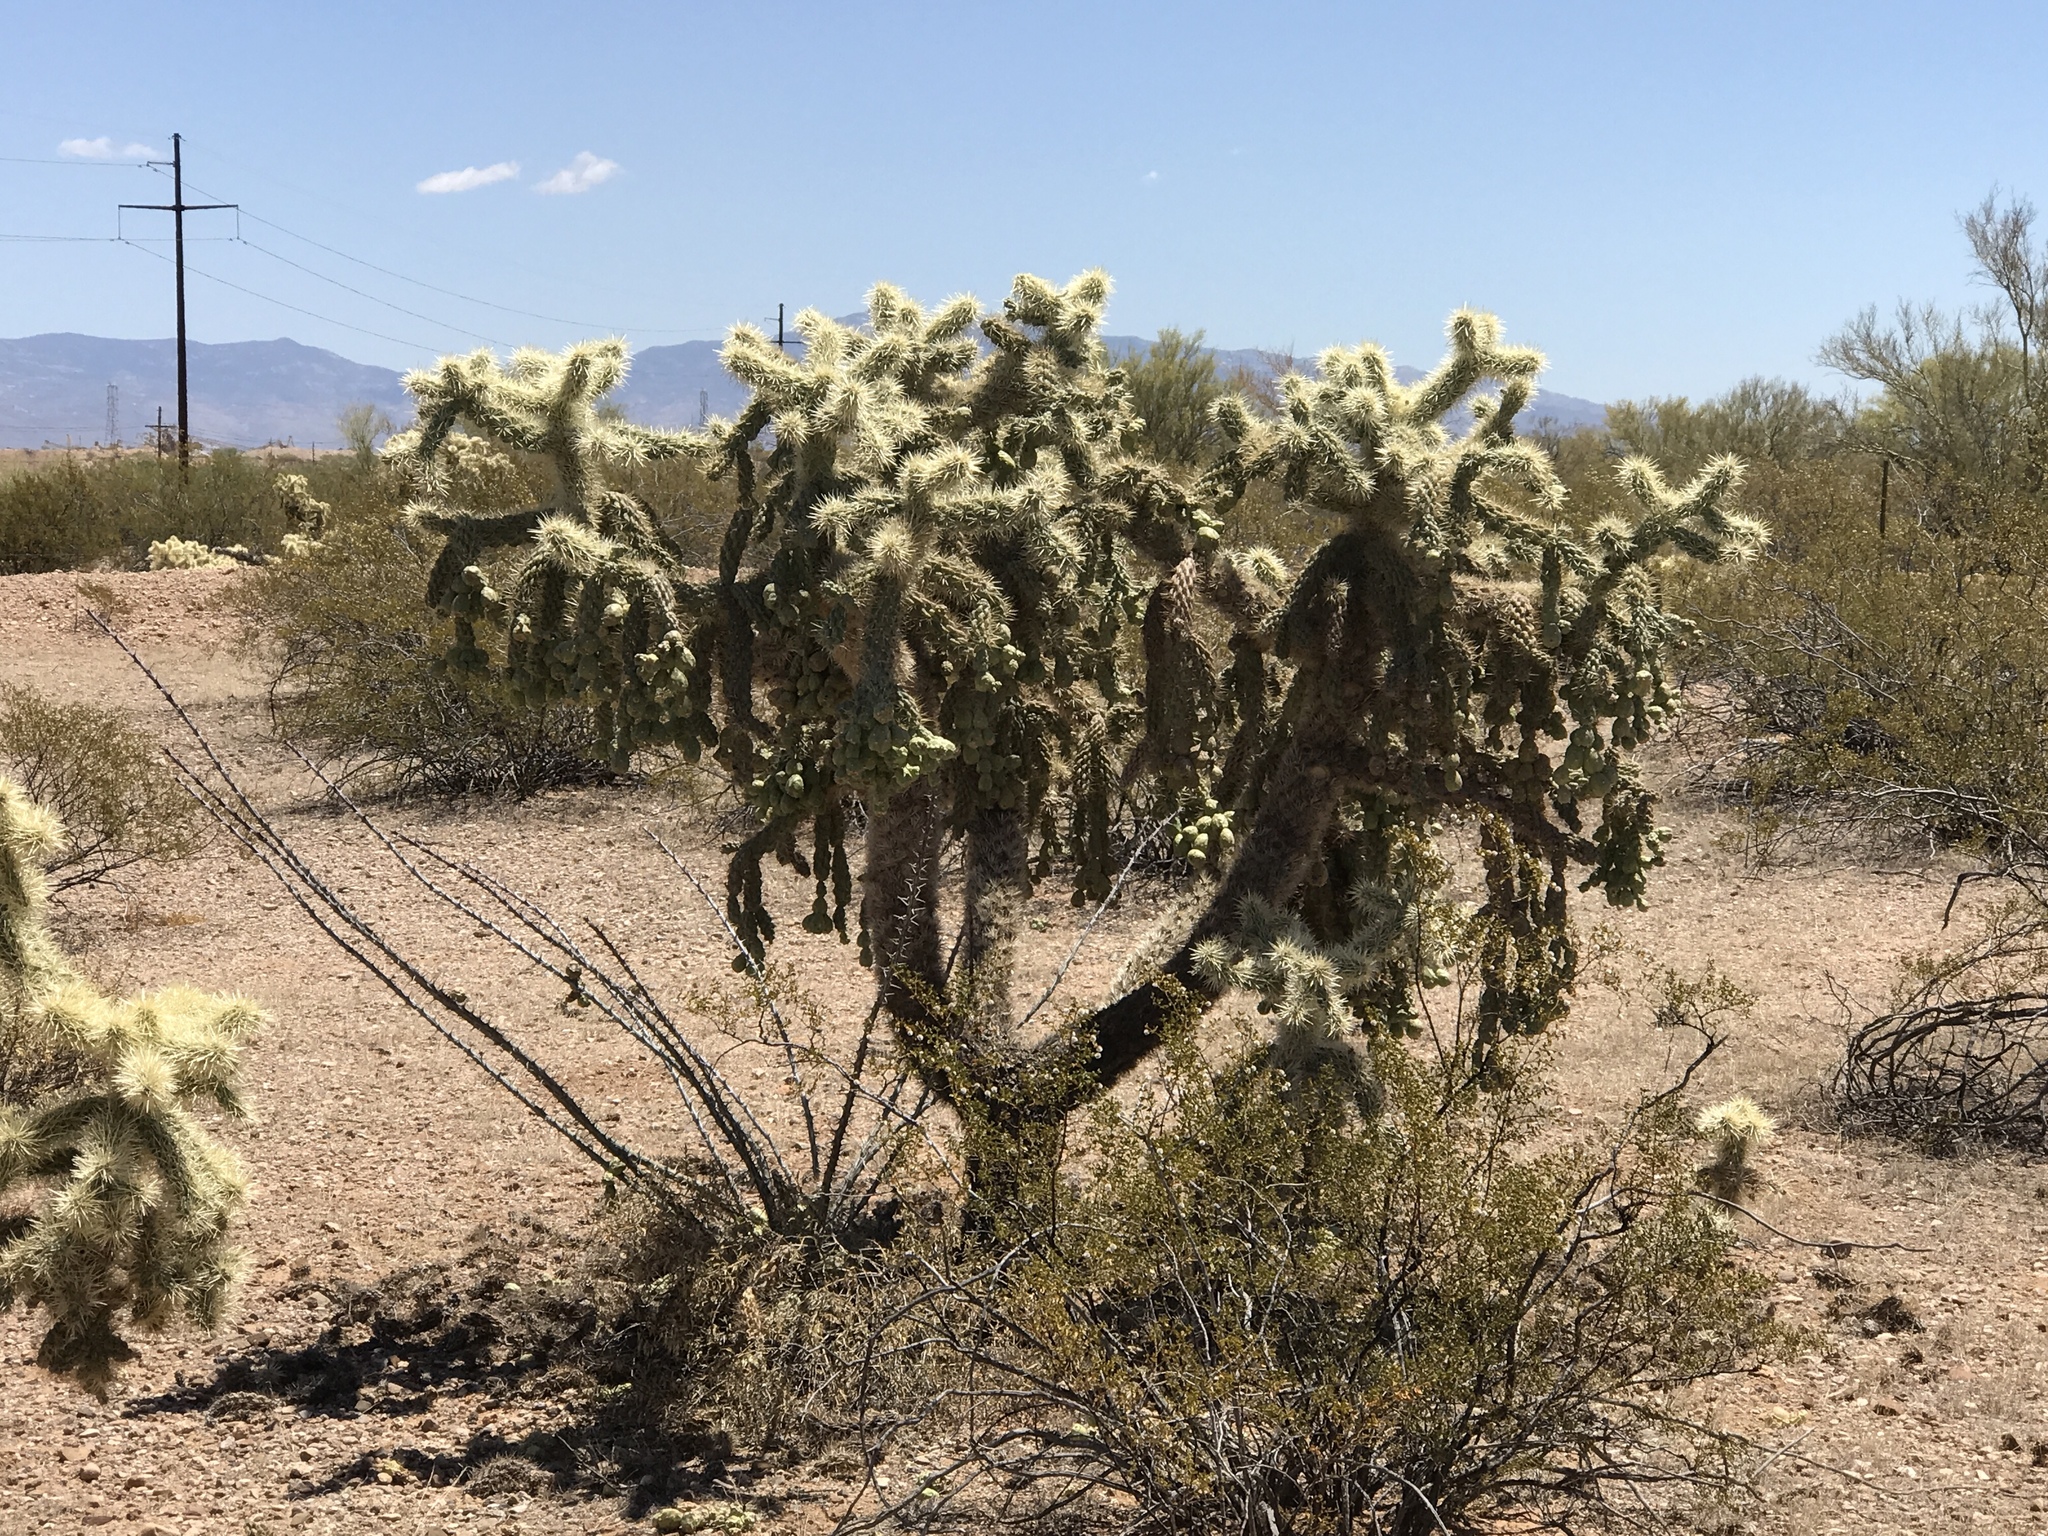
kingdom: Plantae
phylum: Tracheophyta
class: Magnoliopsida
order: Caryophyllales
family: Cactaceae
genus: Cylindropuntia
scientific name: Cylindropuntia fulgida
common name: Jumping cholla
